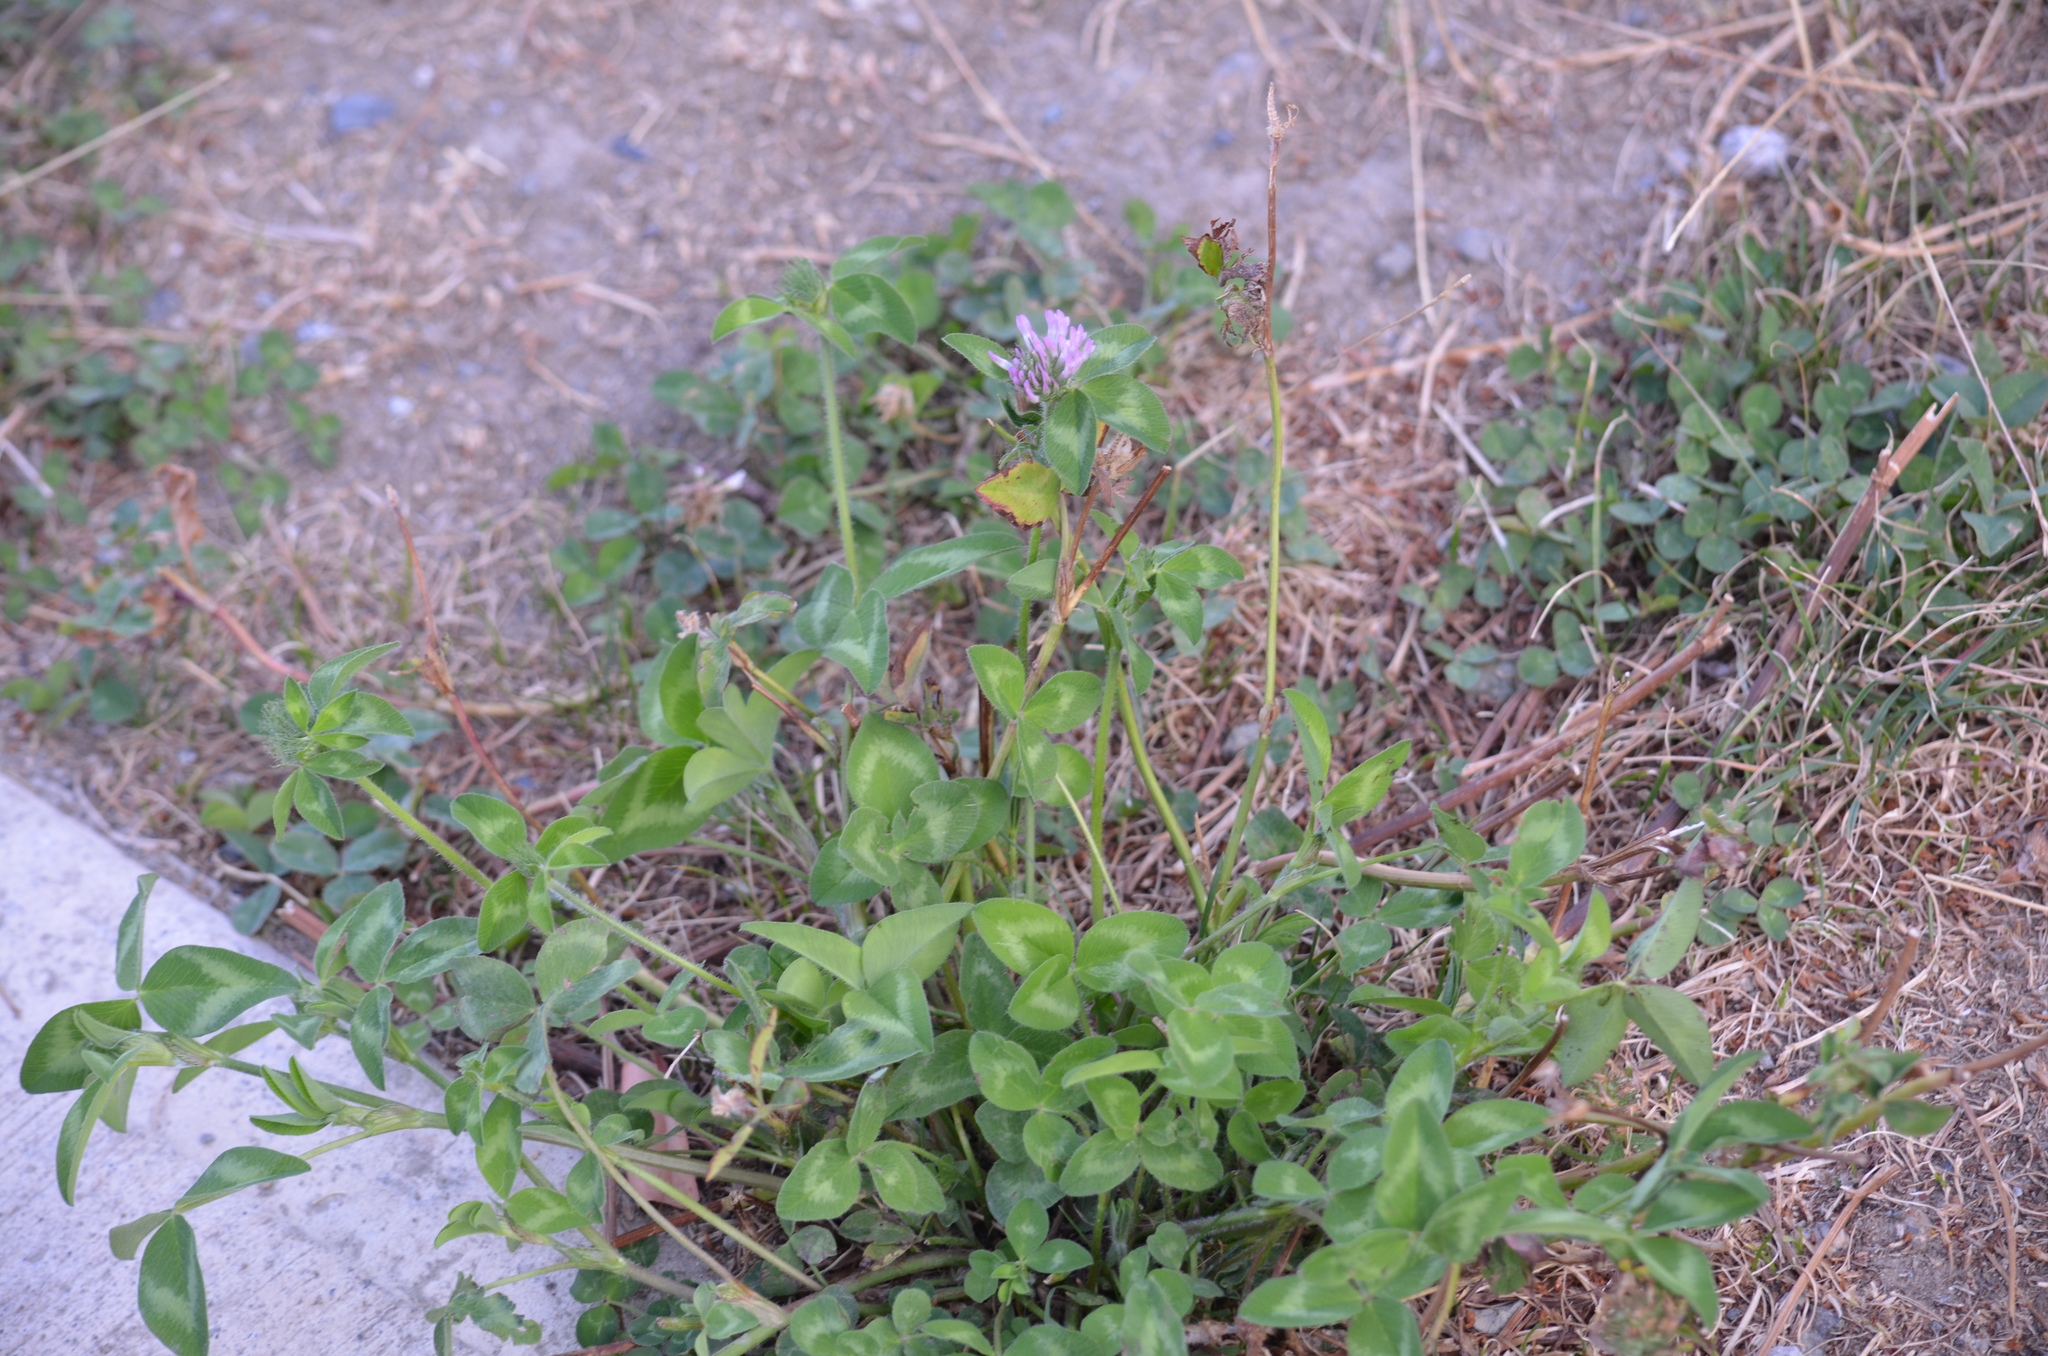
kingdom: Plantae
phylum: Tracheophyta
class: Magnoliopsida
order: Fabales
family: Fabaceae
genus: Trifolium
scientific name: Trifolium pratense
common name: Red clover
